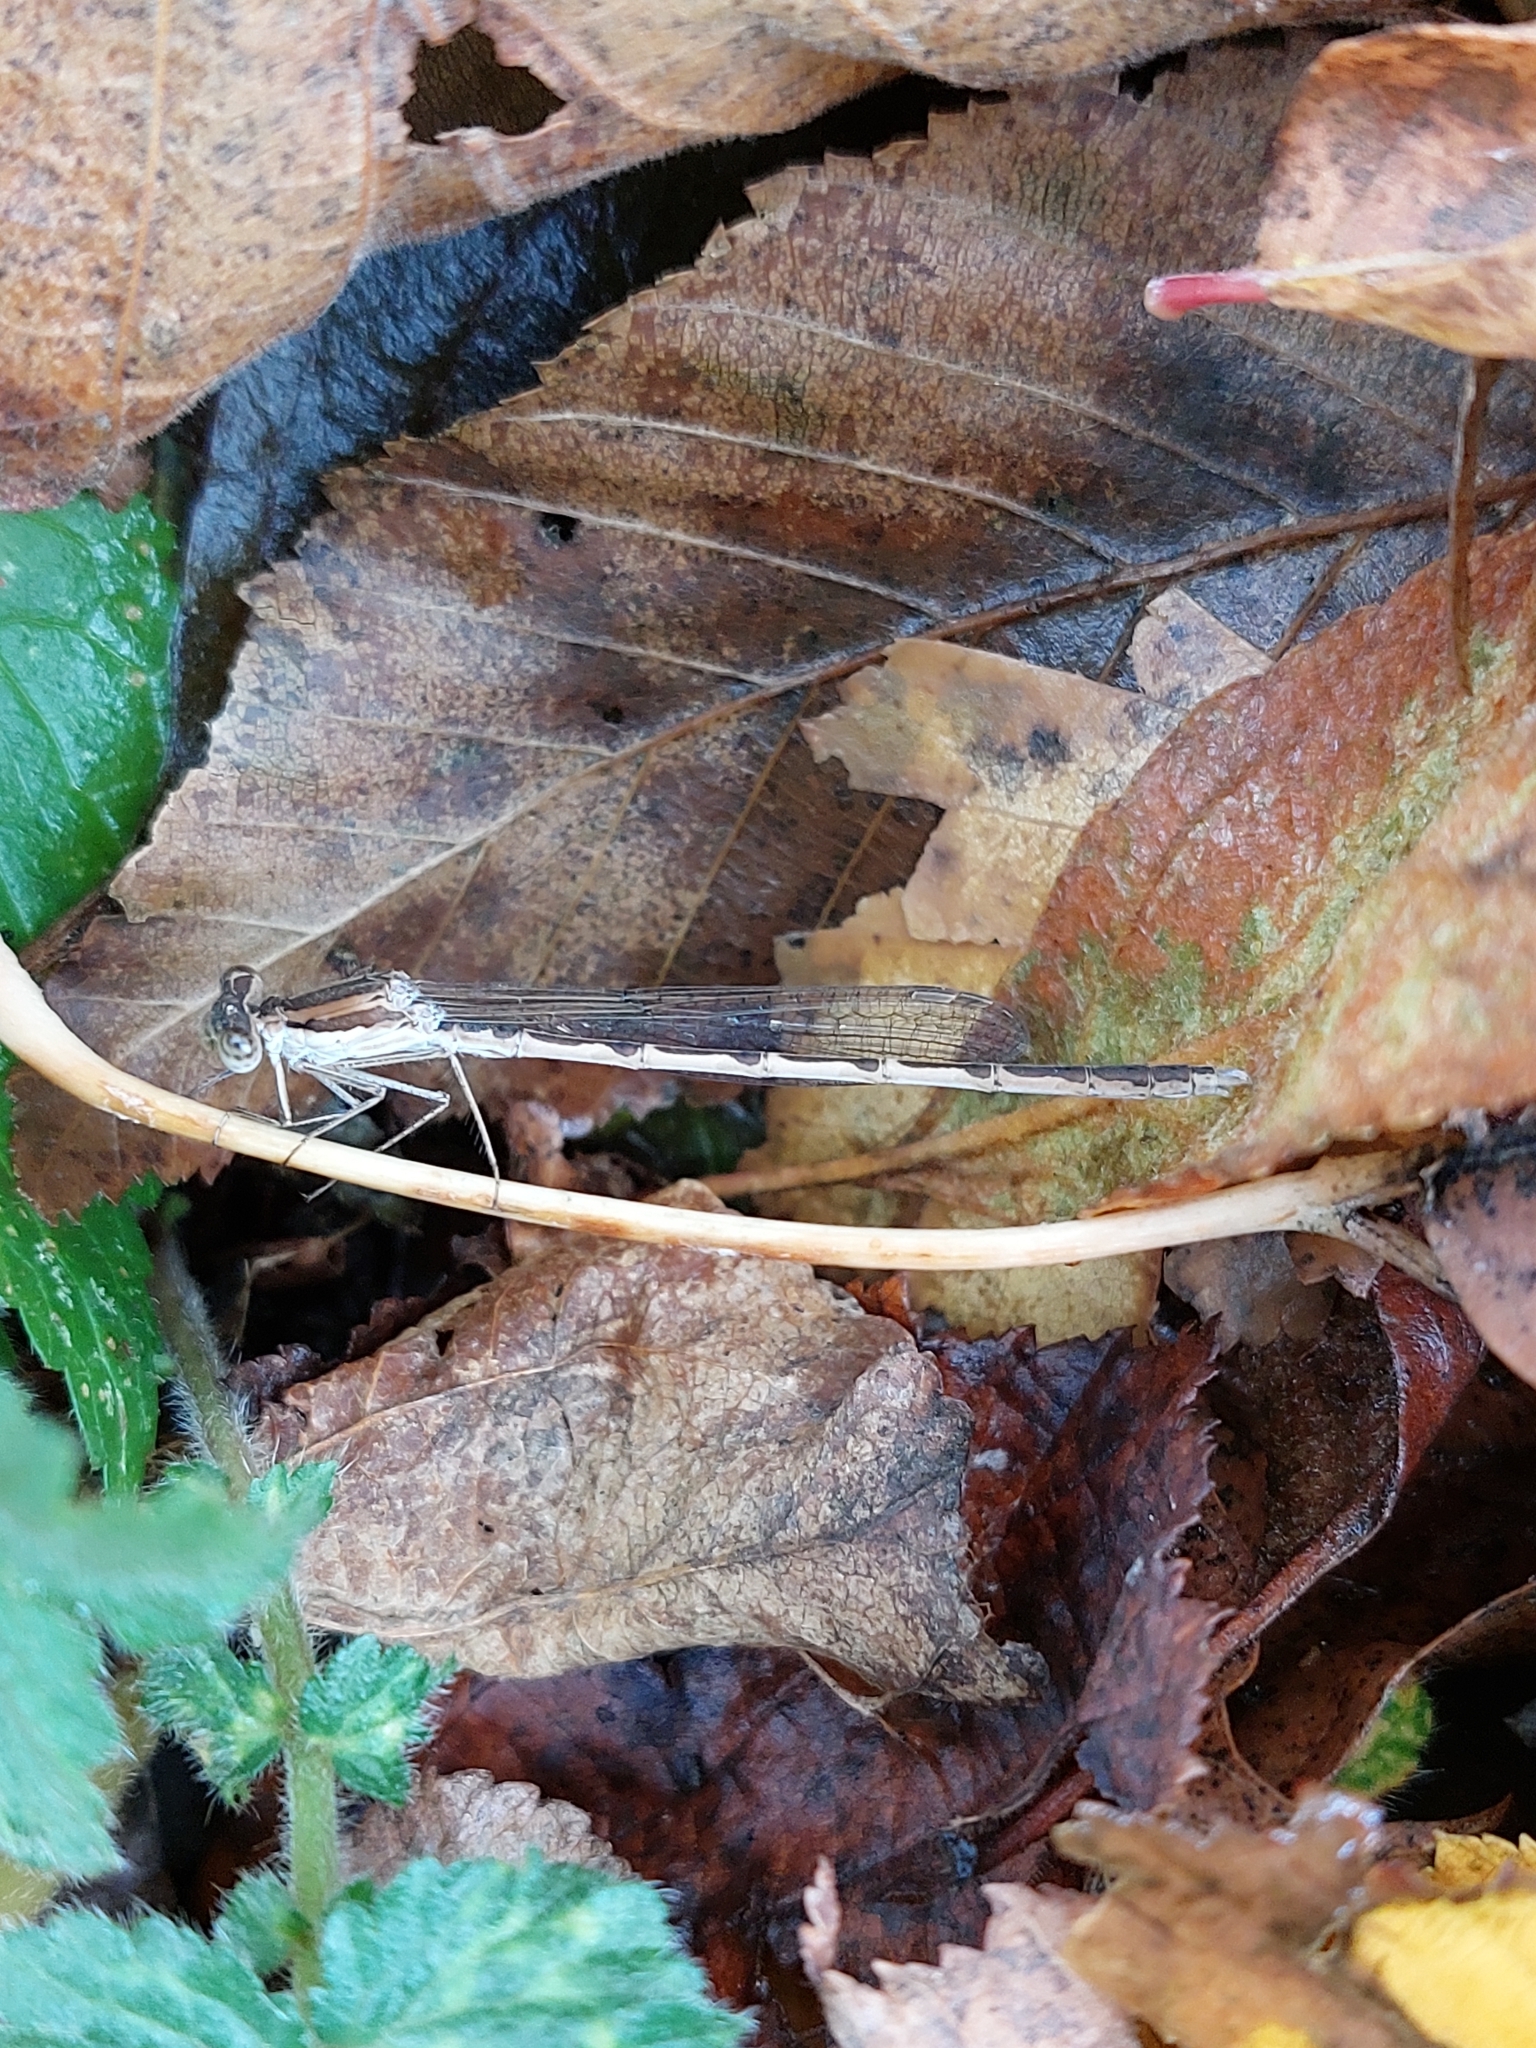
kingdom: Animalia
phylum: Arthropoda
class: Insecta
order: Odonata
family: Lestidae
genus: Sympecma
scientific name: Sympecma fusca
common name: Common winter damsel
